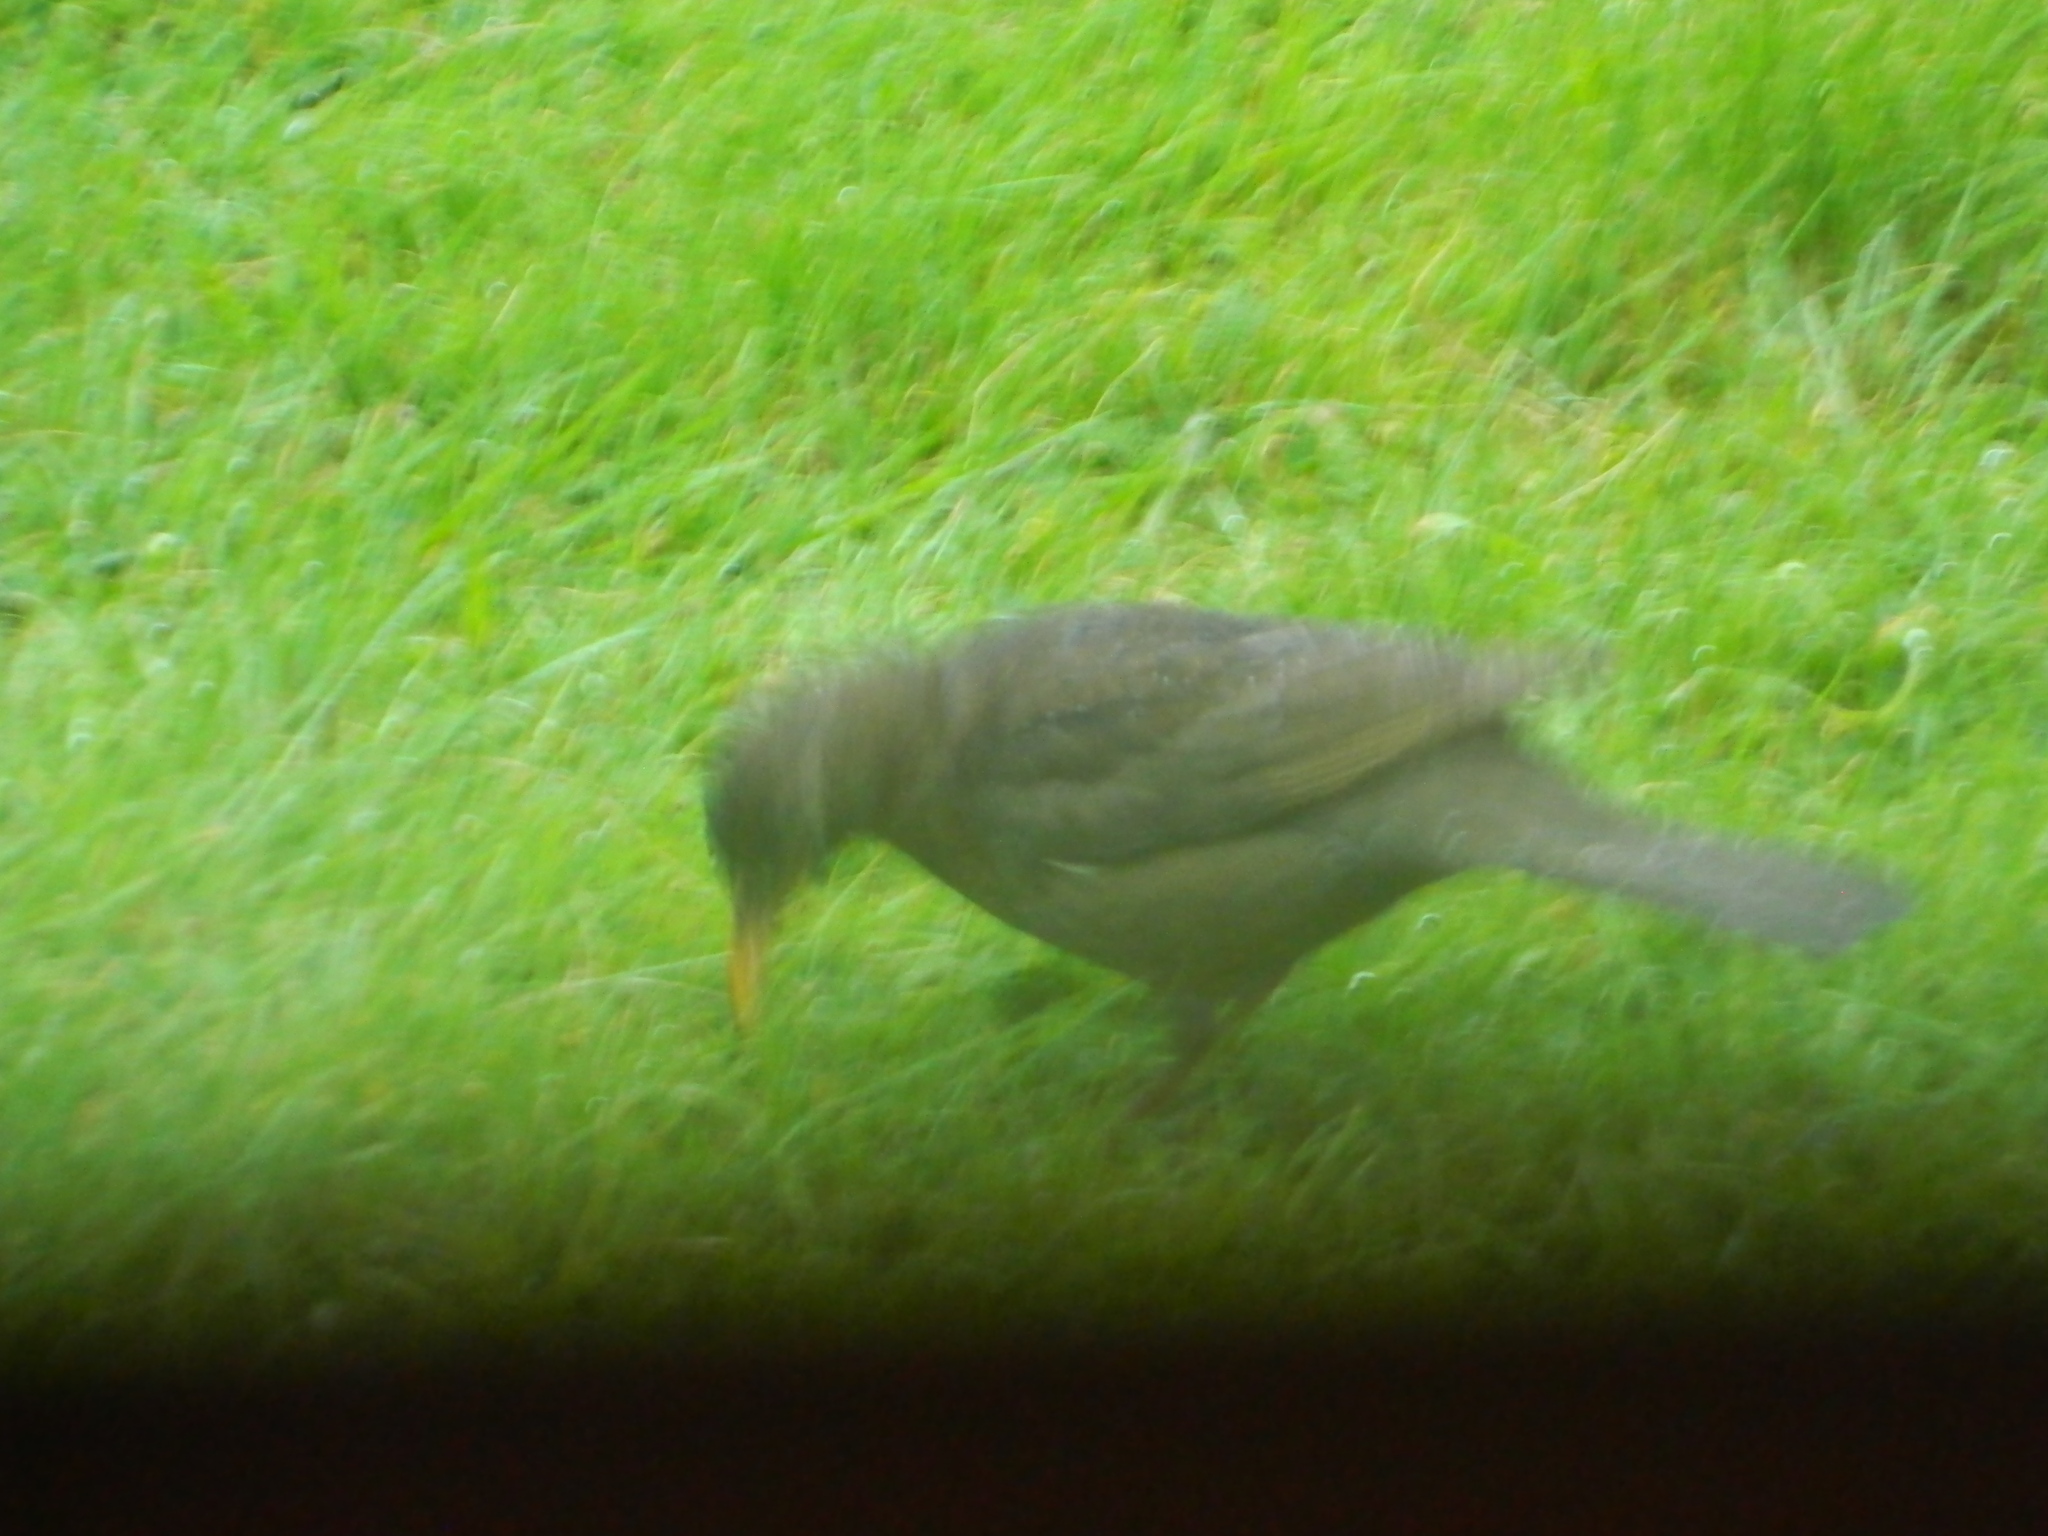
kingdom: Animalia
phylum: Chordata
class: Aves
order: Passeriformes
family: Turdidae
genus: Turdus
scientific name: Turdus merula
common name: Common blackbird
